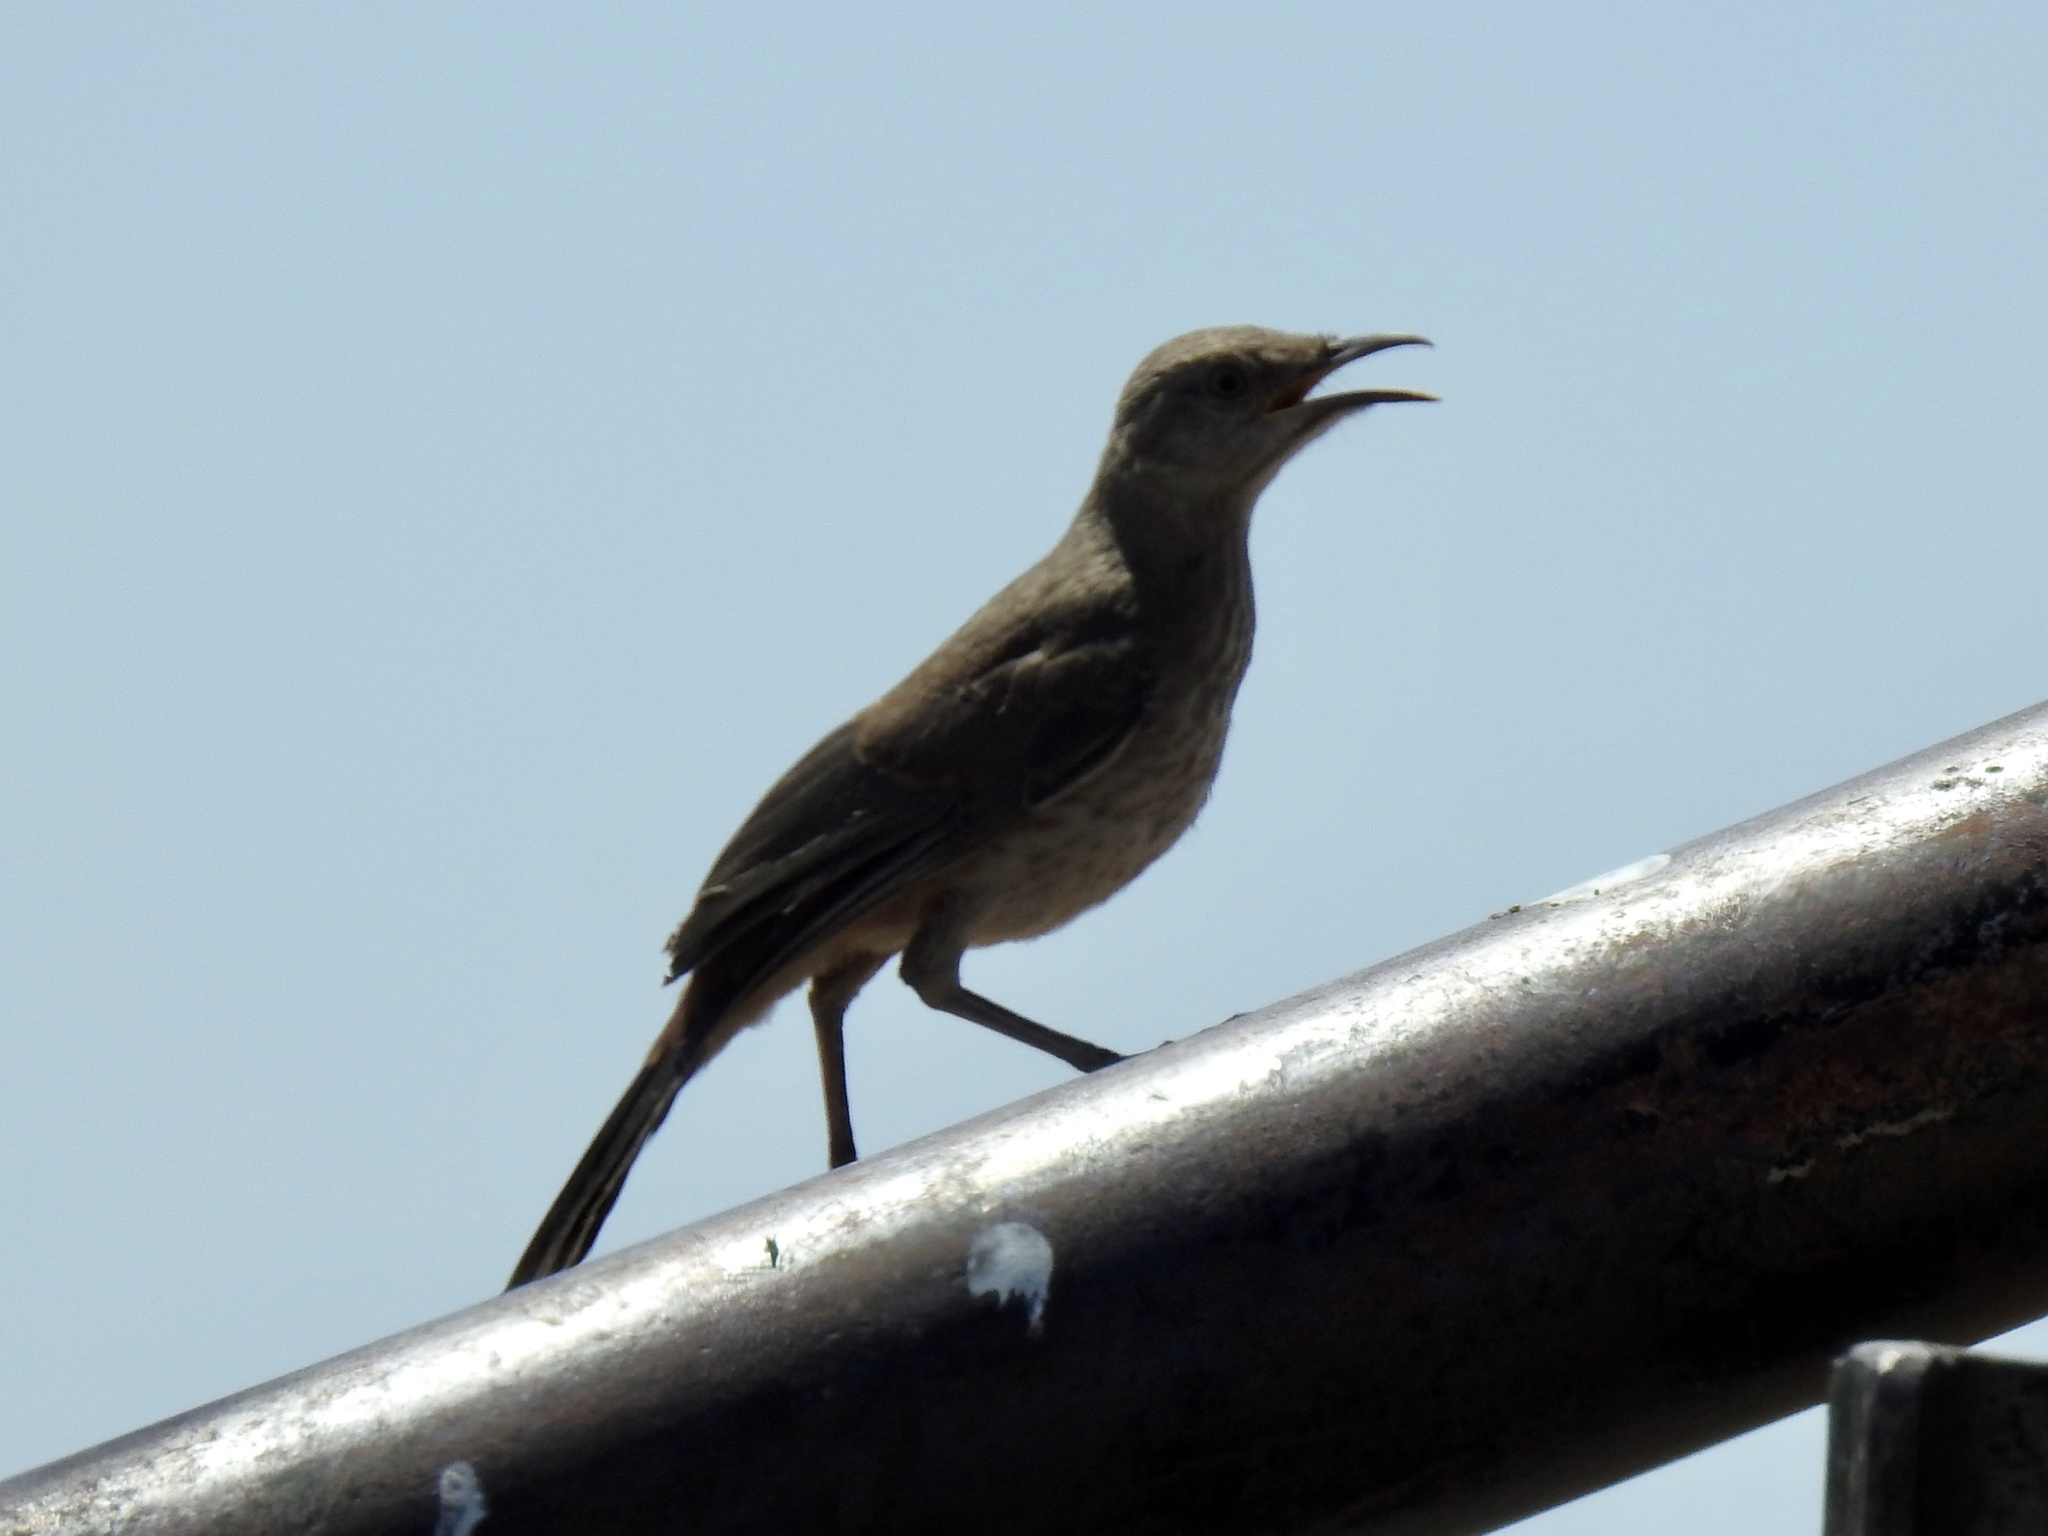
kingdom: Animalia
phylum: Chordata
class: Aves
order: Passeriformes
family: Mimidae
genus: Toxostoma
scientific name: Toxostoma curvirostre
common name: Curve-billed thrasher
